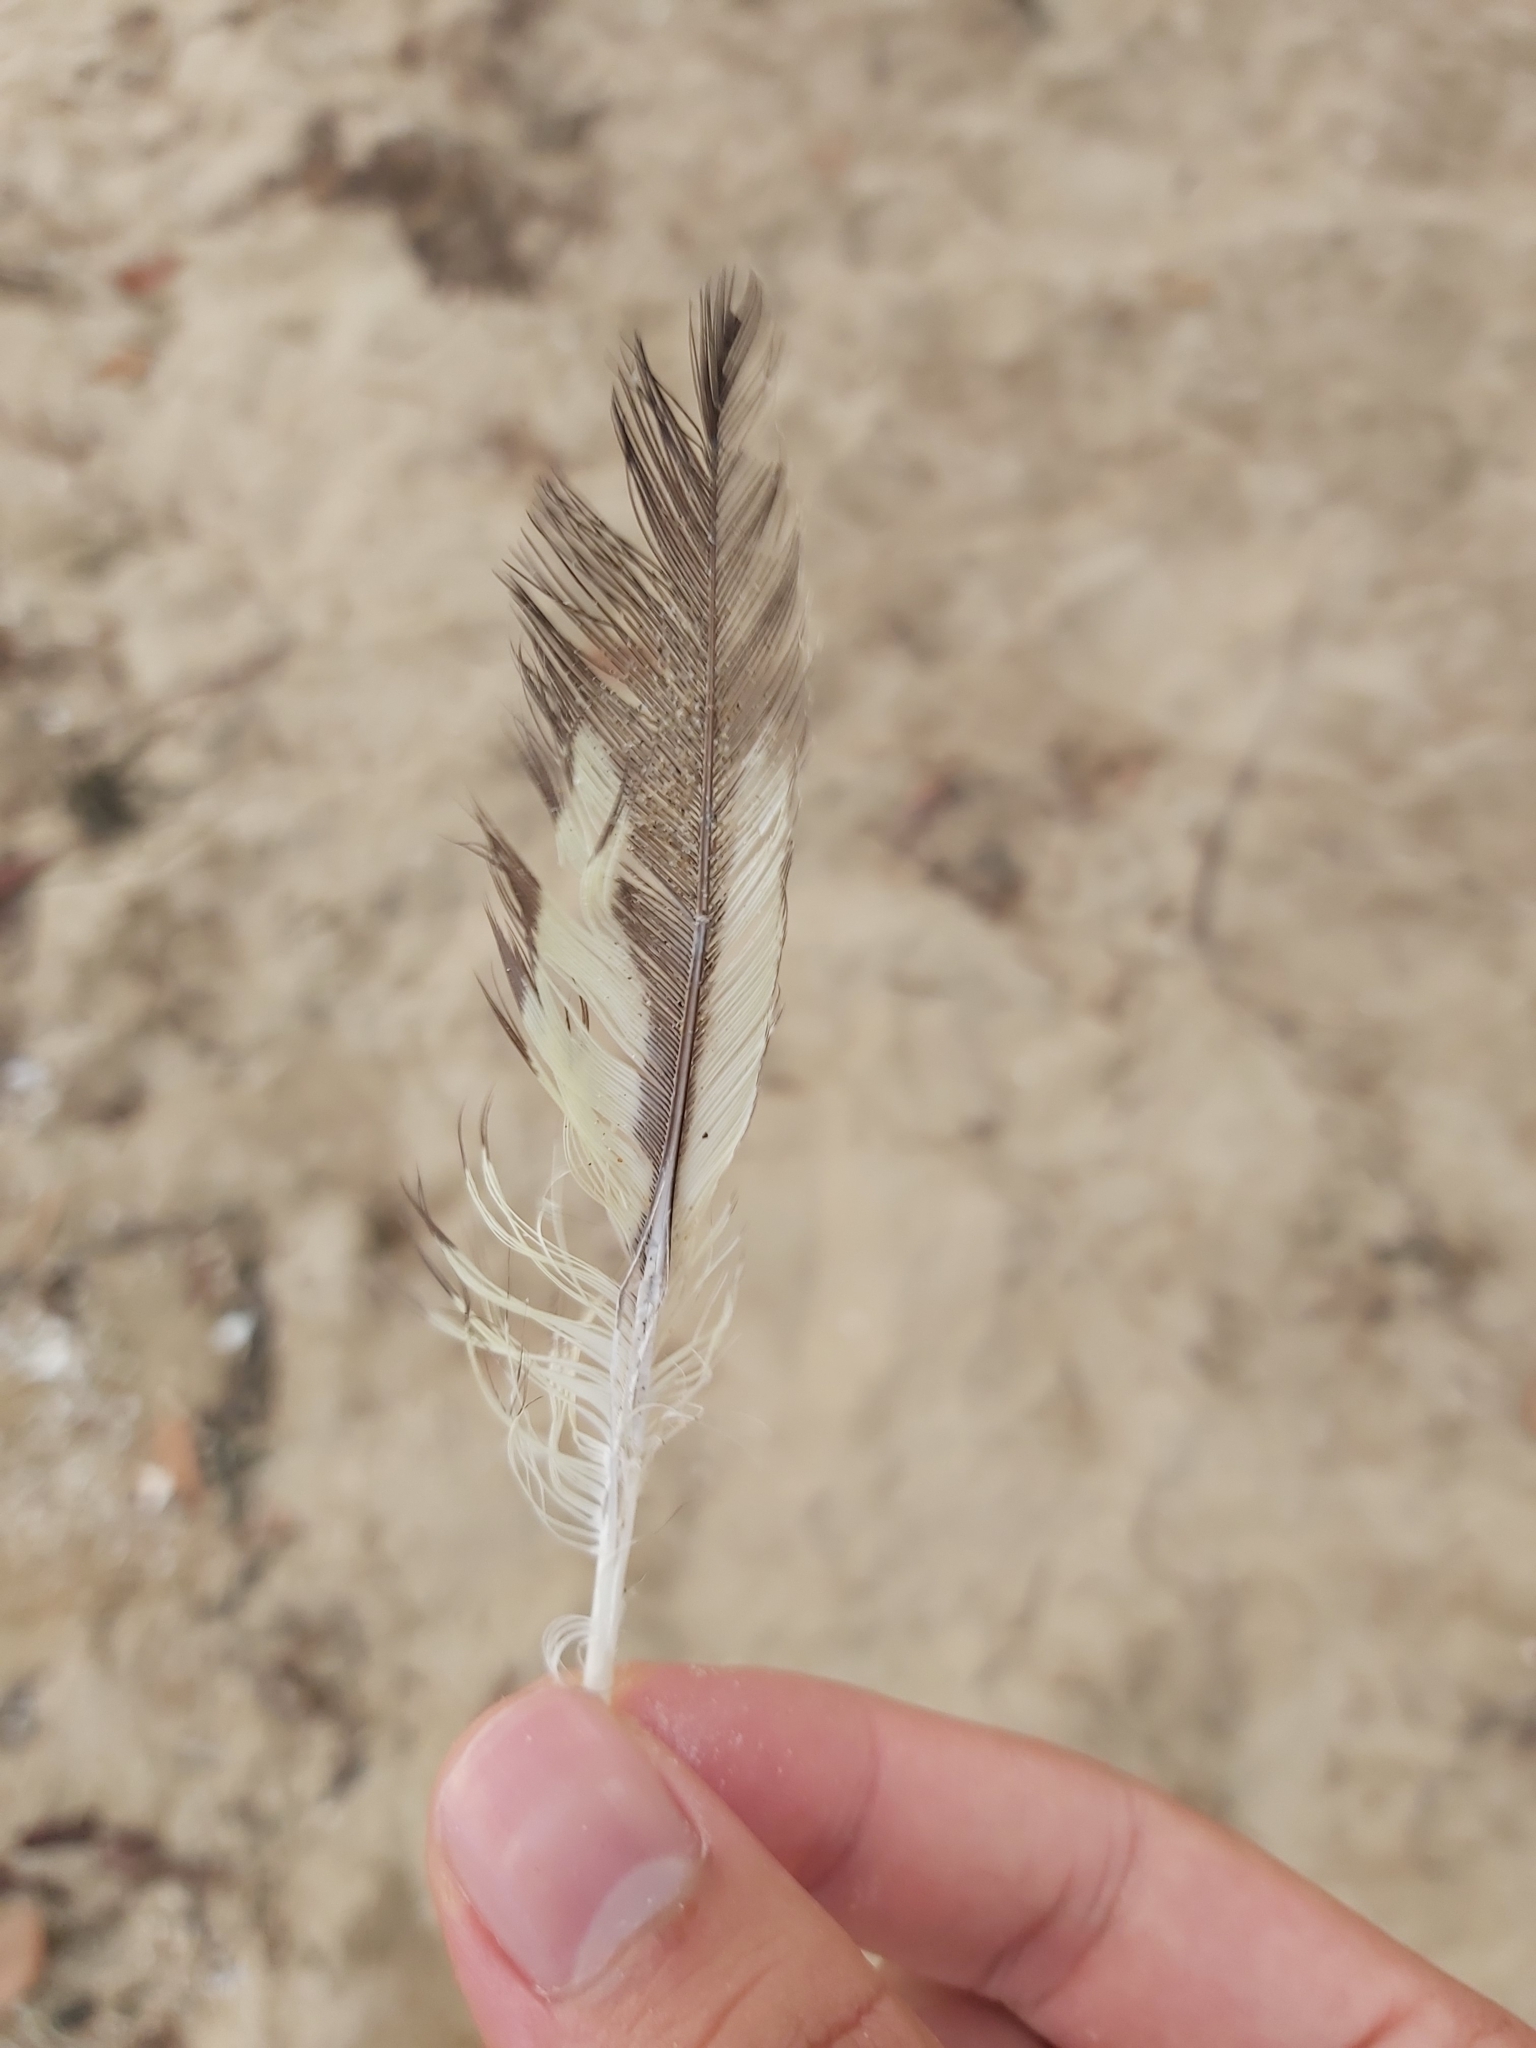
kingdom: Animalia
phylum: Chordata
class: Aves
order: Psittaciformes
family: Psittacidae
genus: Nymphicus
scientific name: Nymphicus hollandicus
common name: Cockatiel
